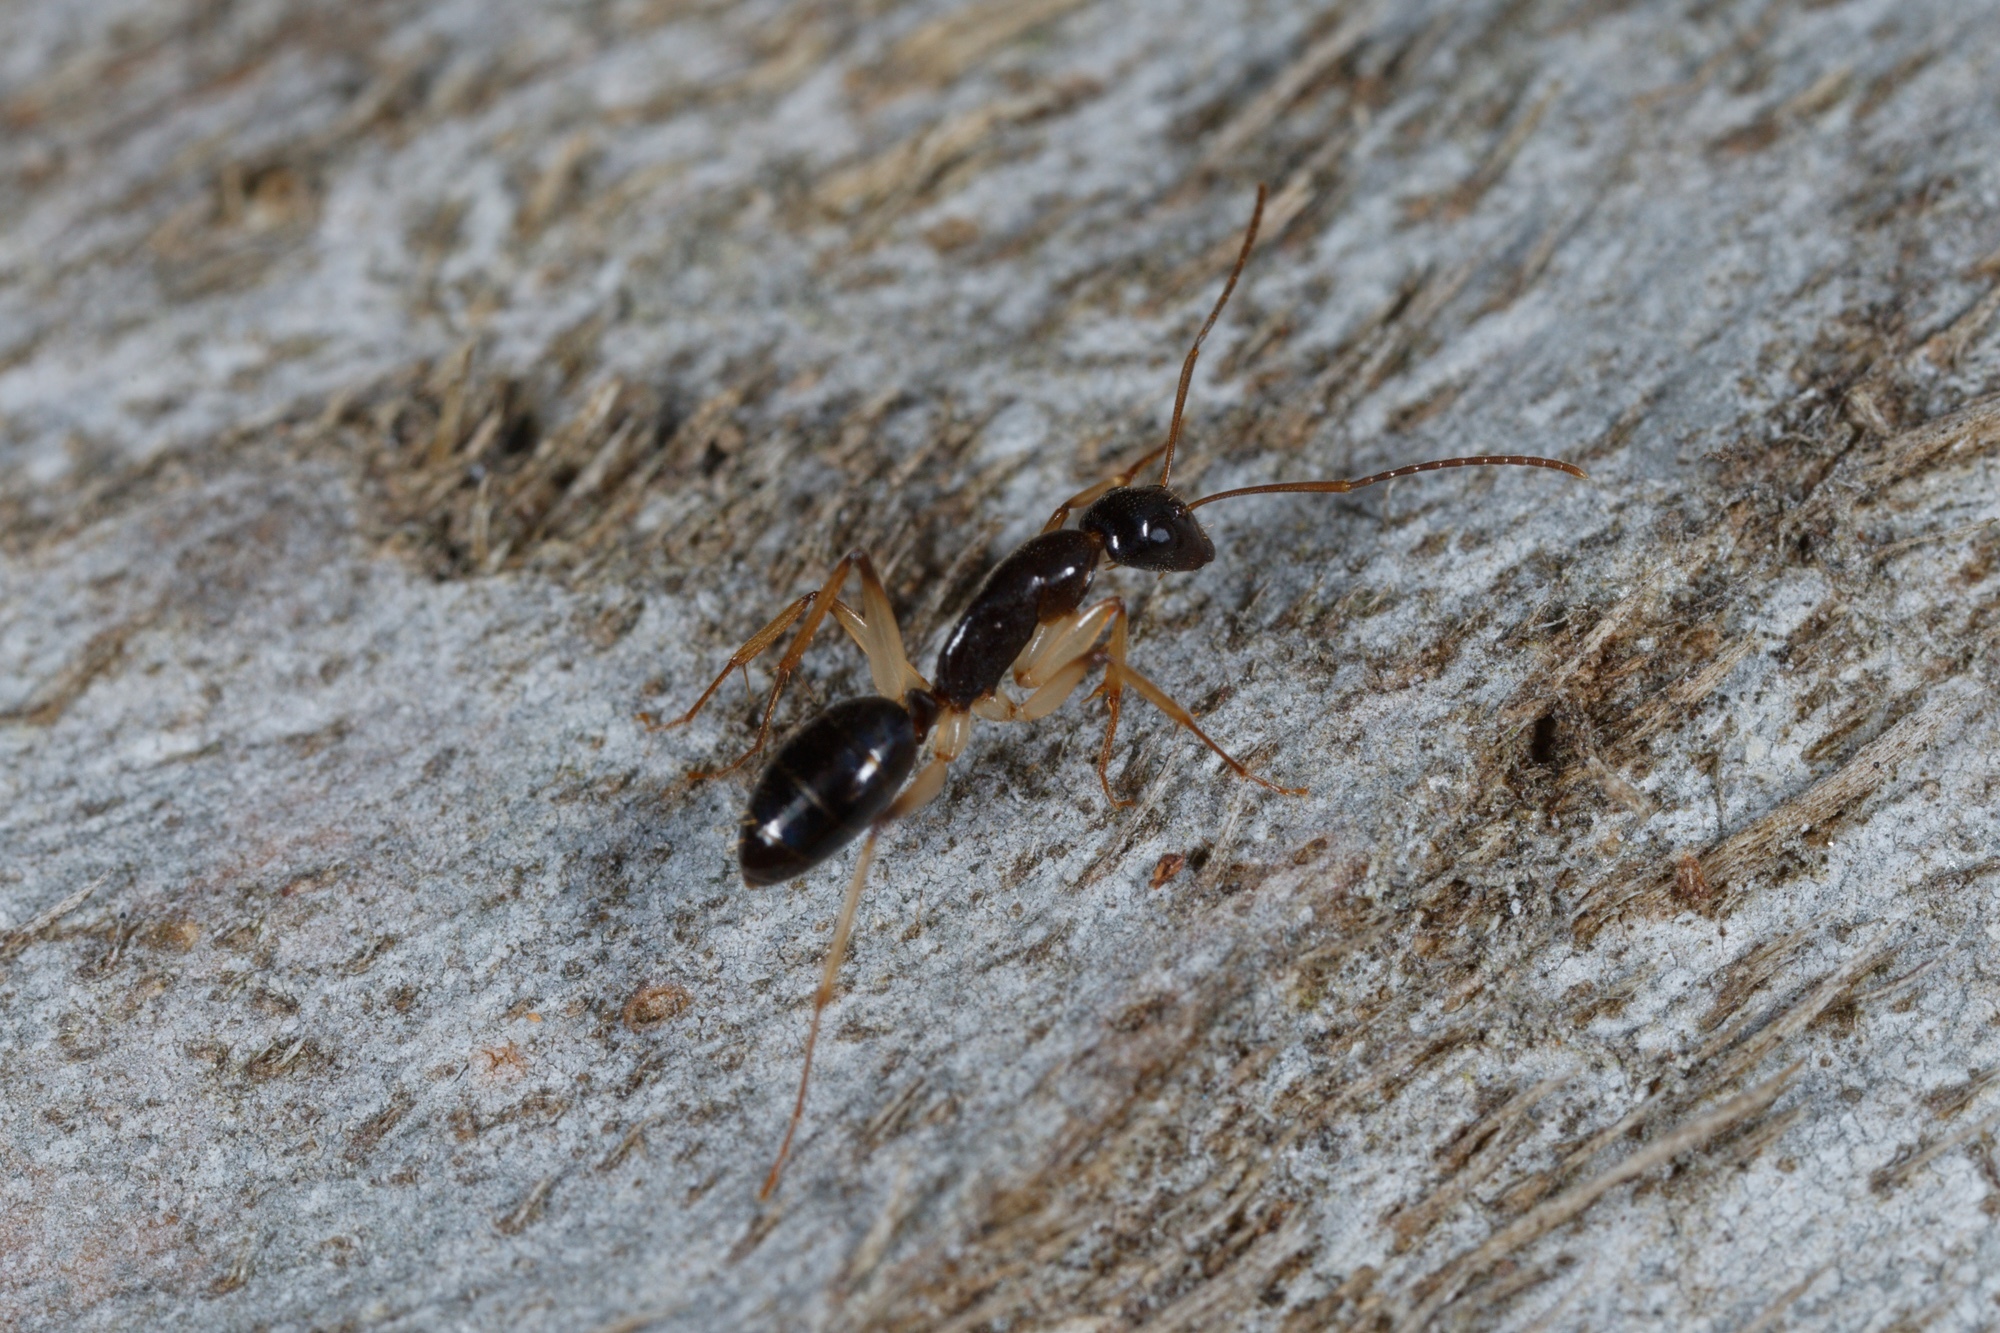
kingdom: Animalia
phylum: Arthropoda
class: Insecta
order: Hymenoptera
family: Formicidae
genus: Camponotus
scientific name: Camponotus elegans
